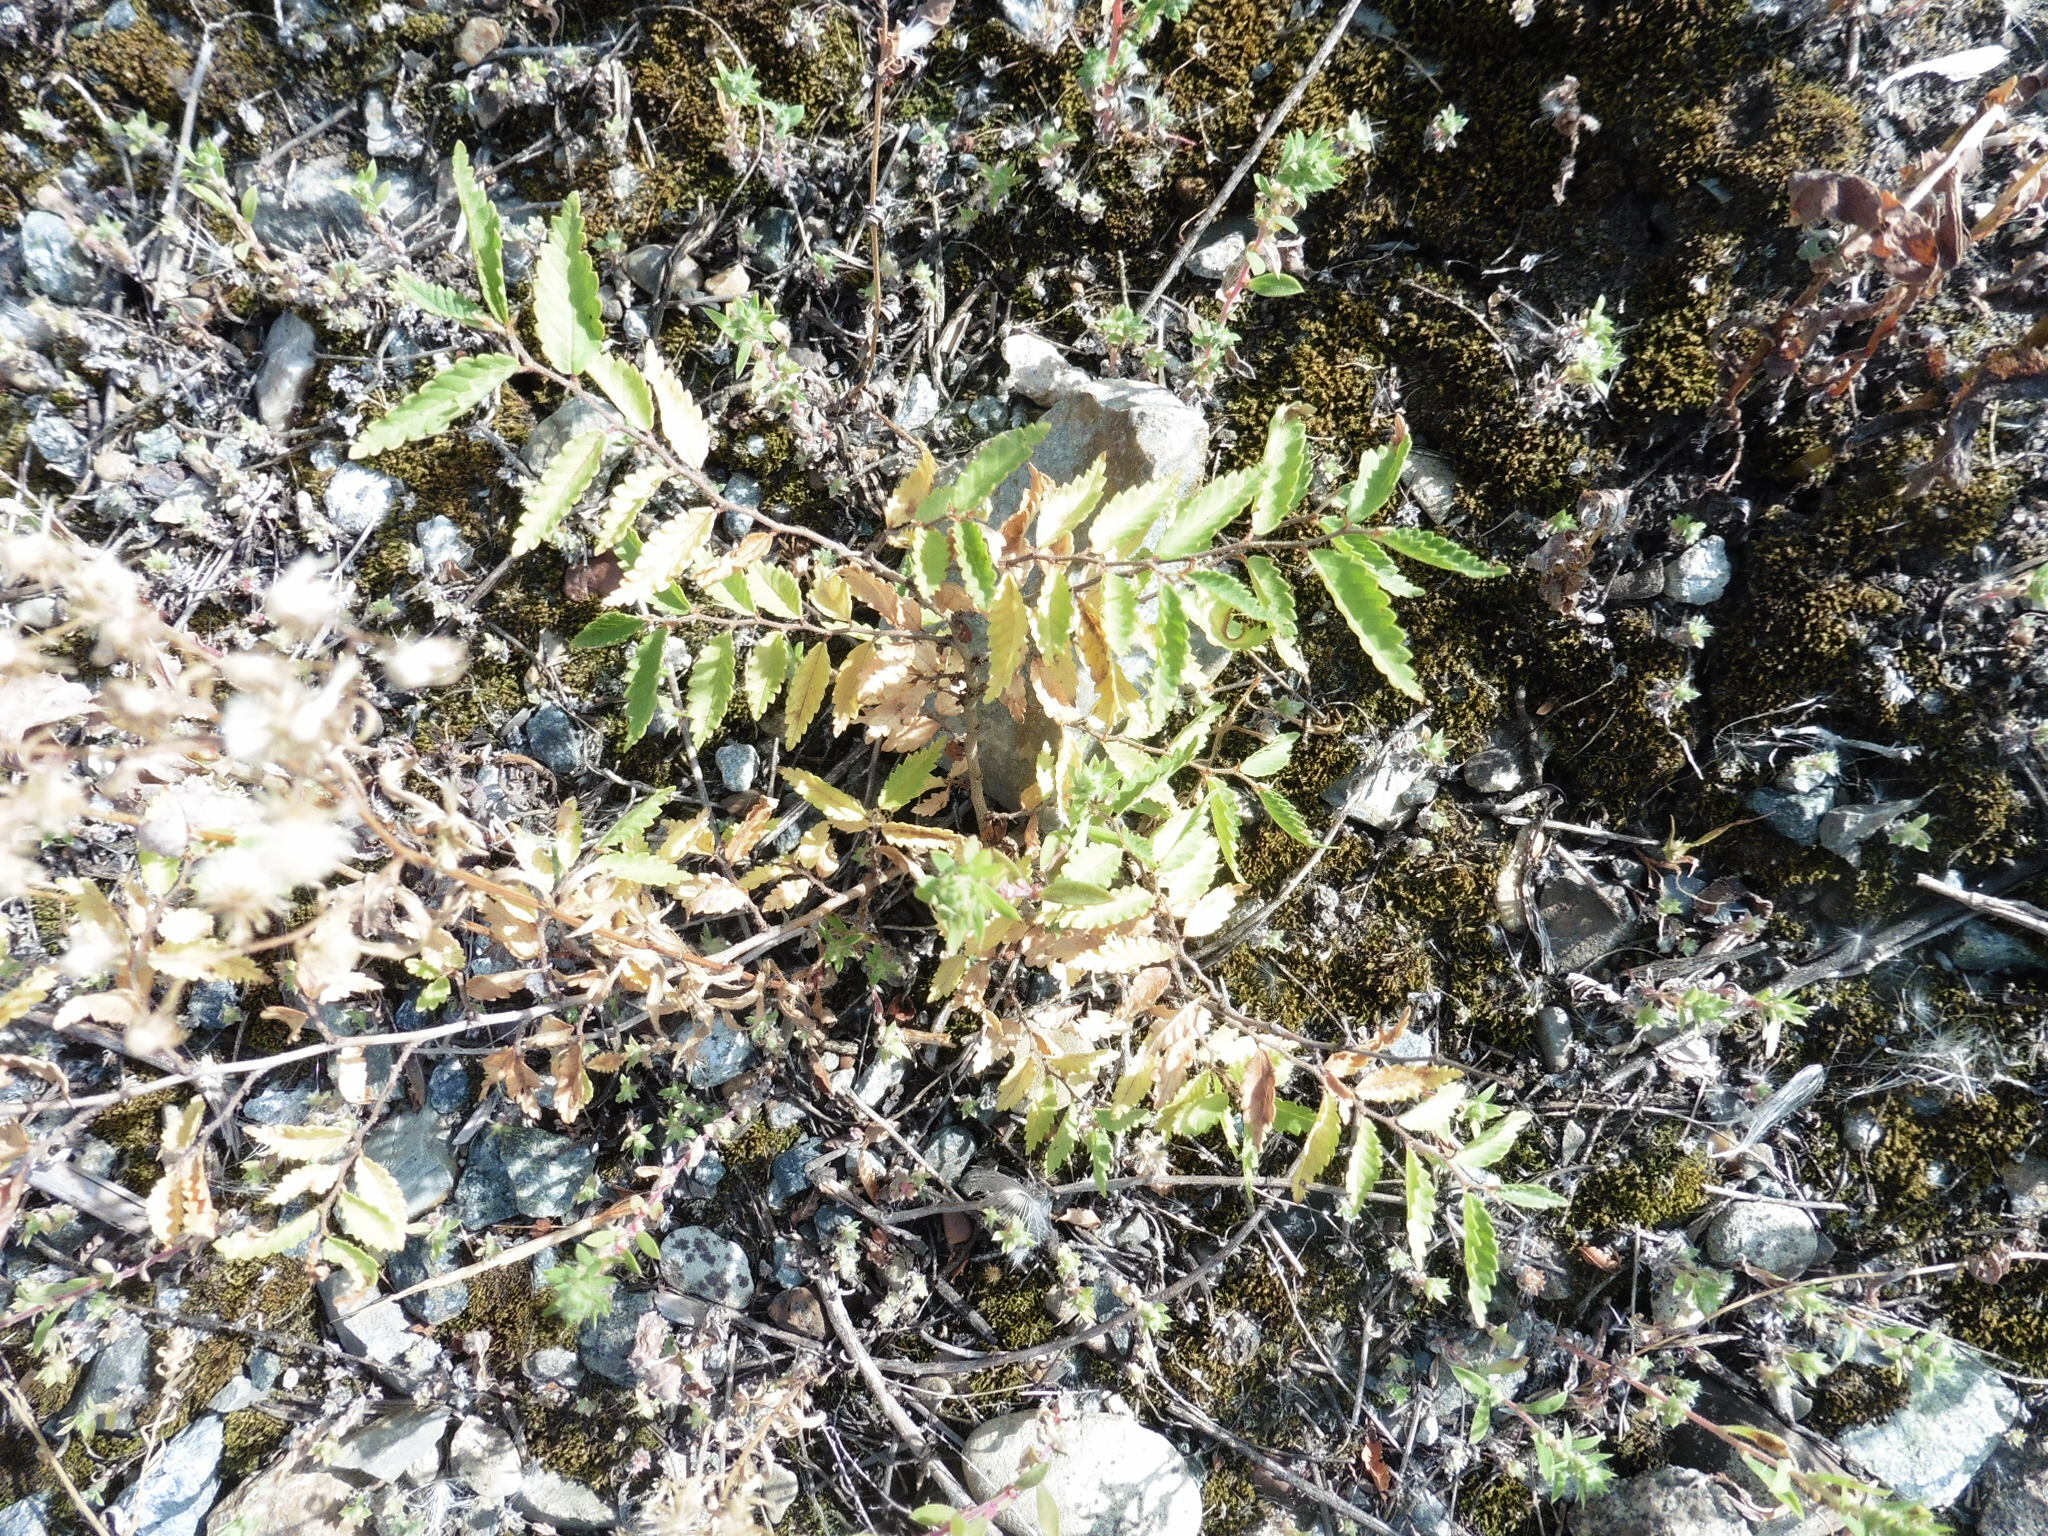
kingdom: Plantae
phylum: Tracheophyta
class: Magnoliopsida
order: Rosales
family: Ulmaceae
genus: Ulmus
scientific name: Ulmus pumila
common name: Siberian elm
